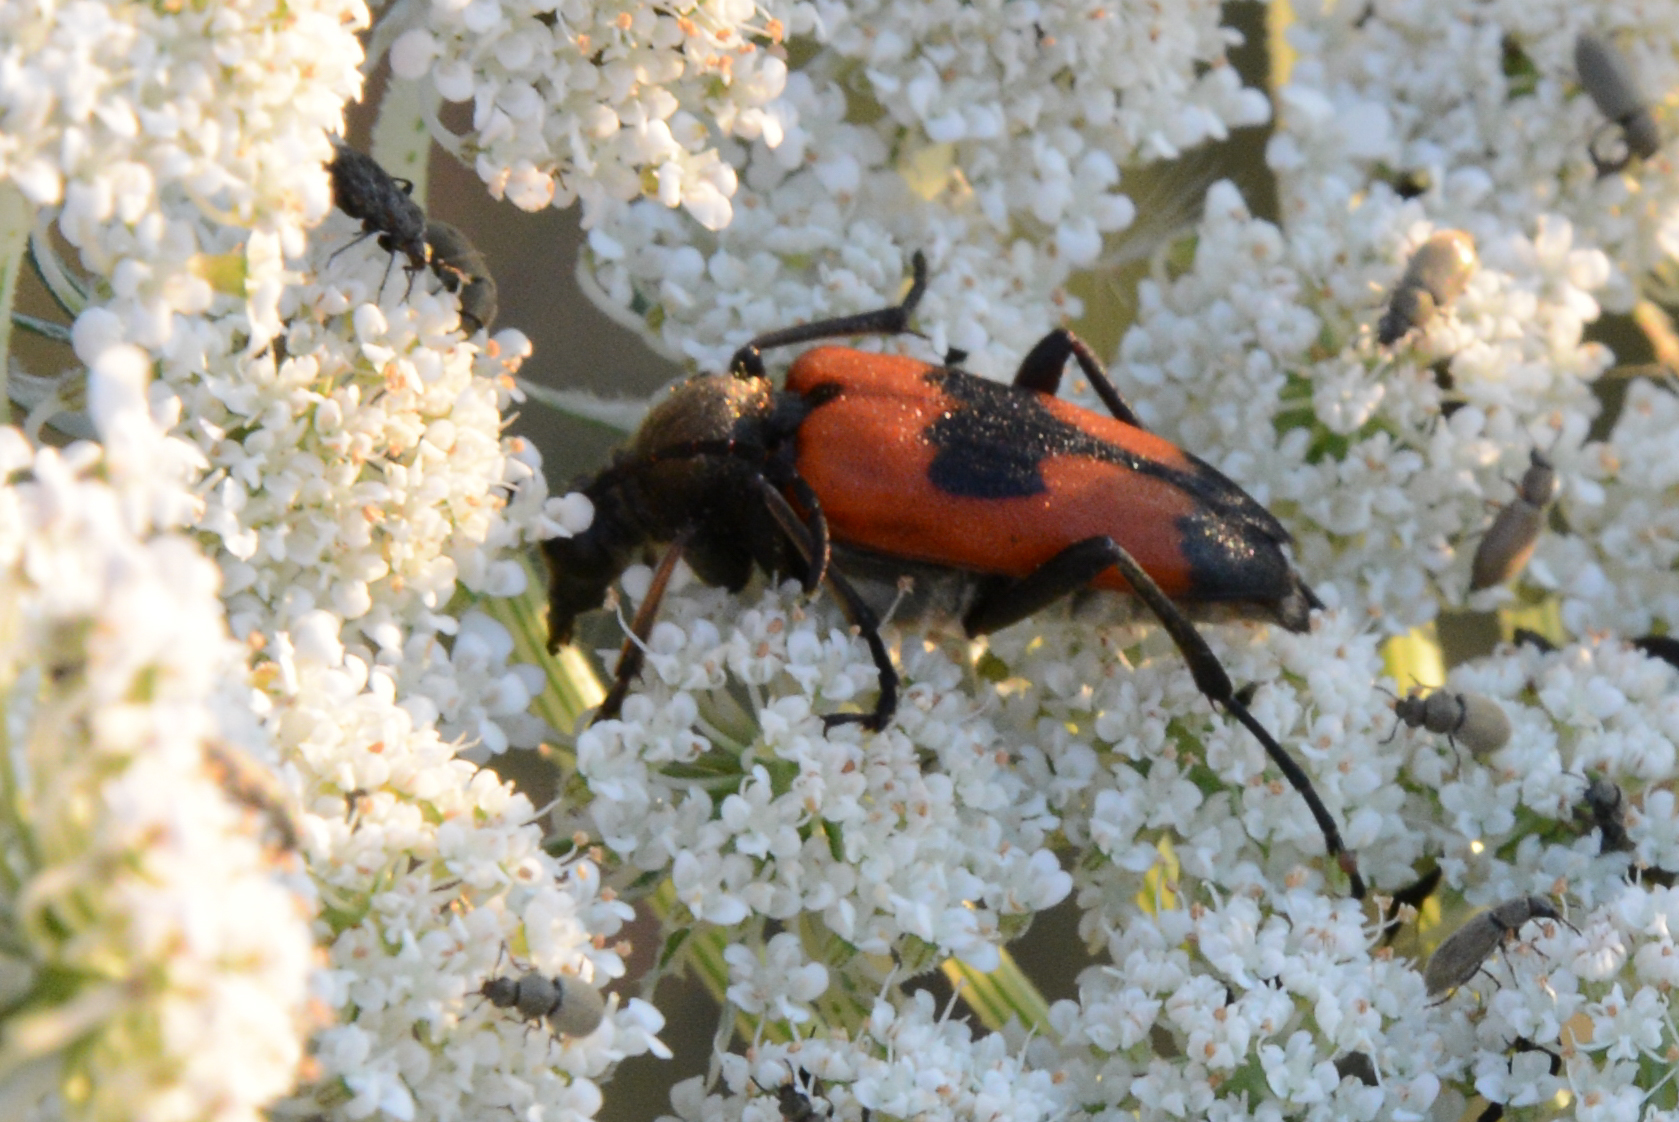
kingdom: Animalia
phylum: Arthropoda
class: Insecta
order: Coleoptera
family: Cerambycidae
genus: Stictoleptura
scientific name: Stictoleptura cordigera
